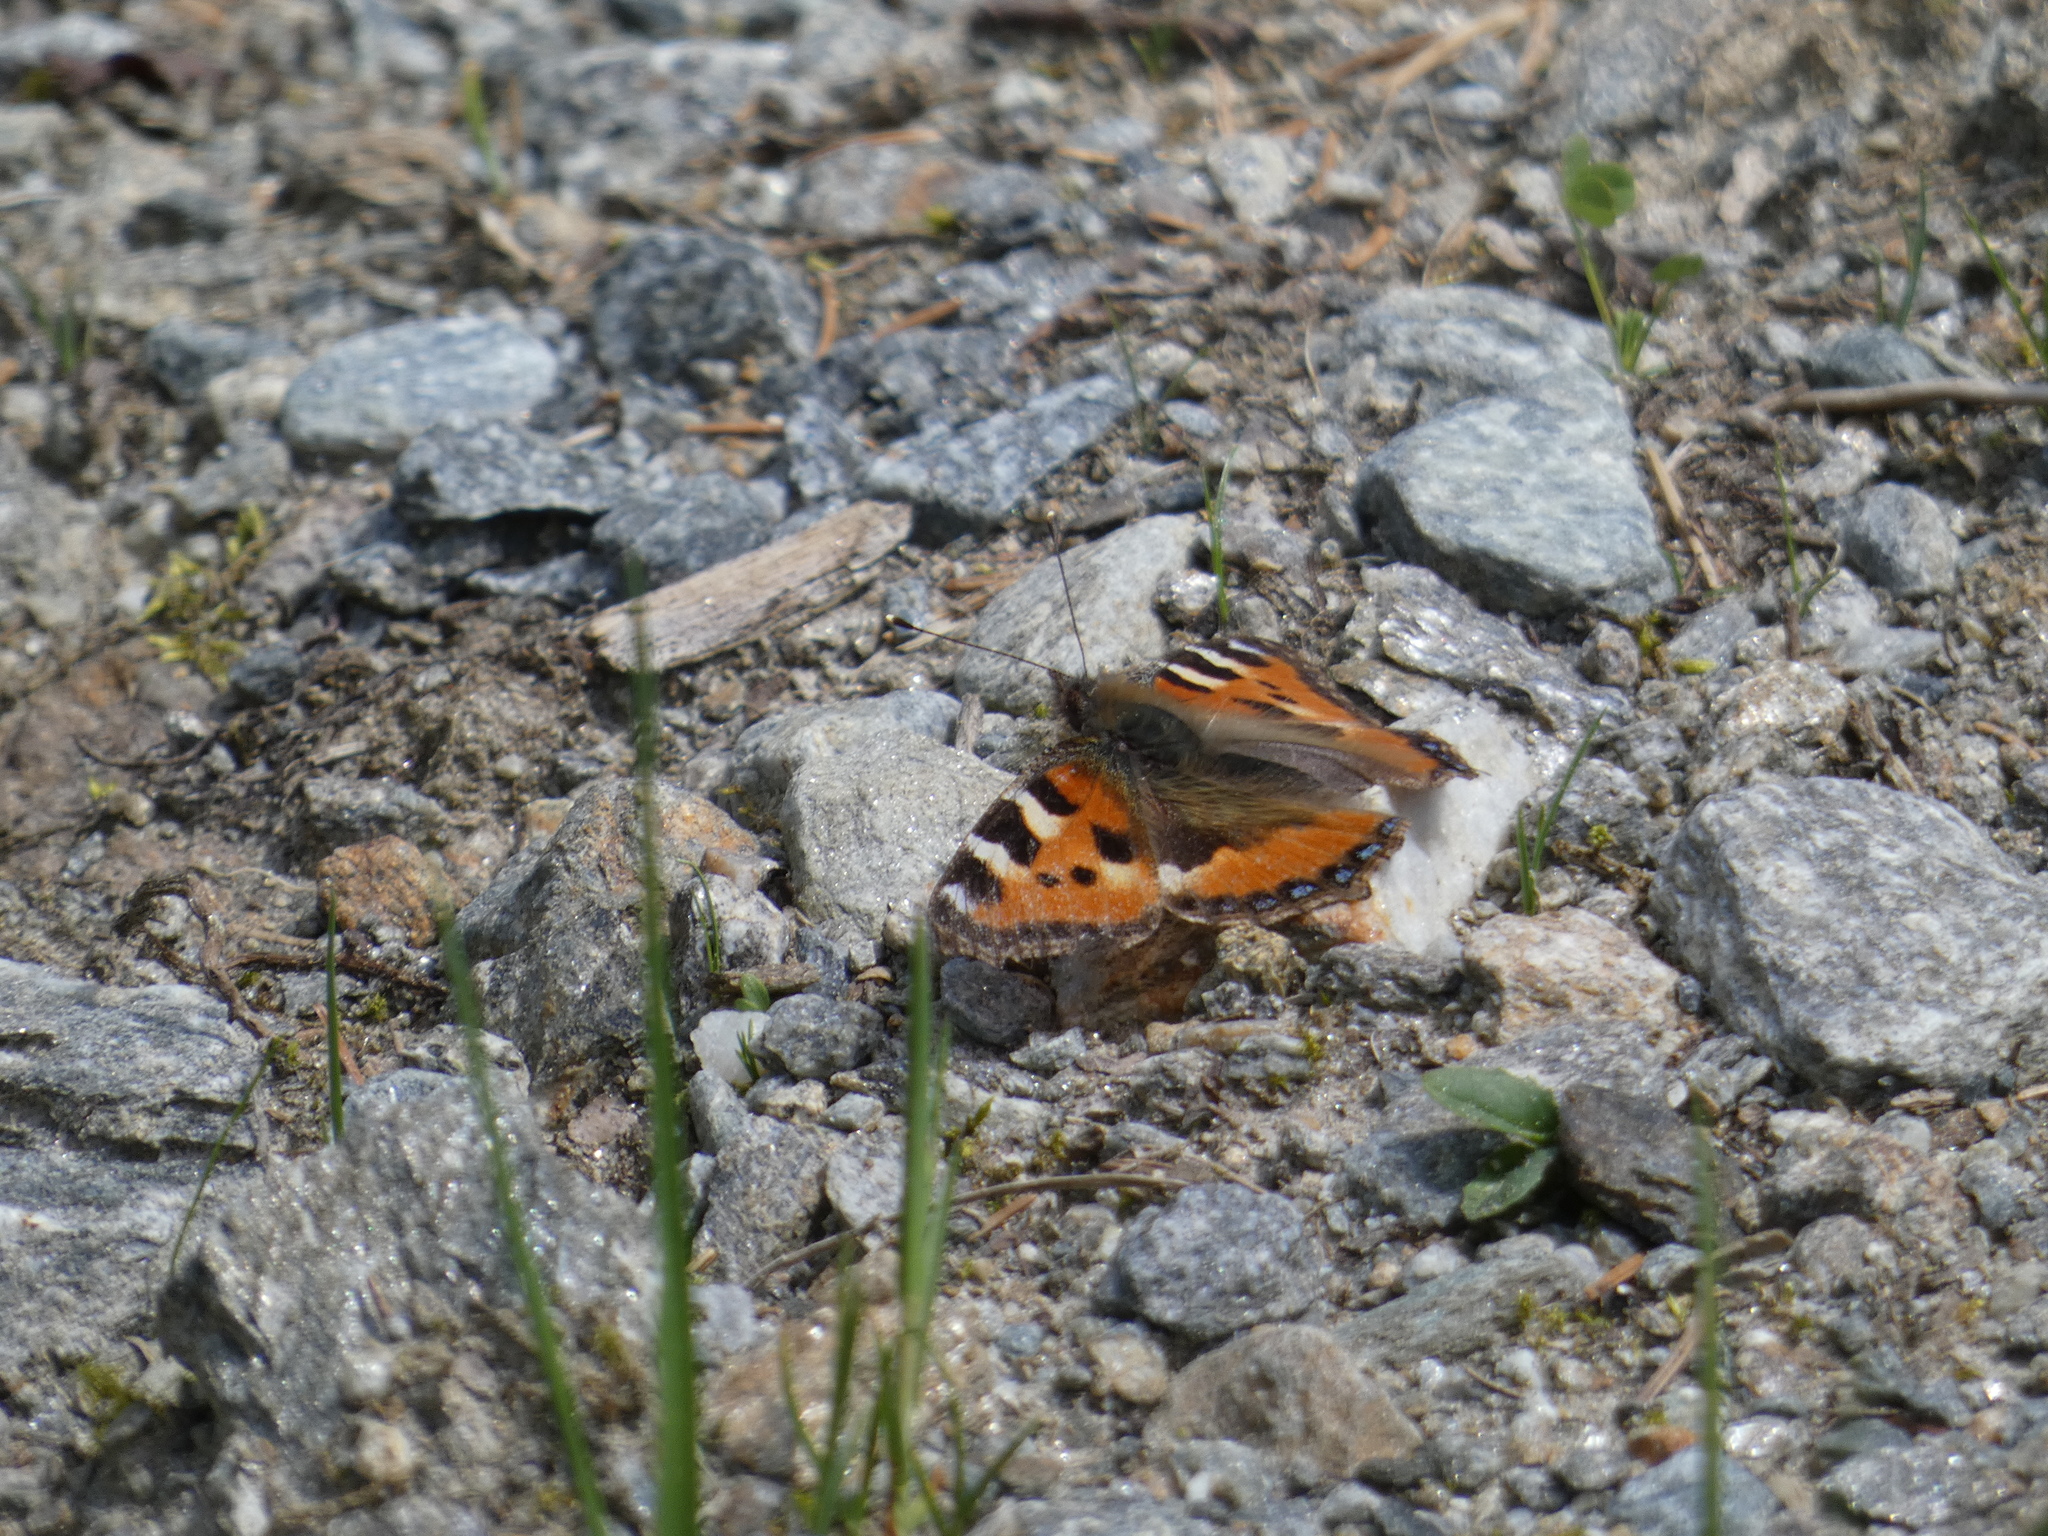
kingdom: Animalia
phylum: Arthropoda
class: Insecta
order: Lepidoptera
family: Nymphalidae
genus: Aglais
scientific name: Aglais urticae
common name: Small tortoiseshell
